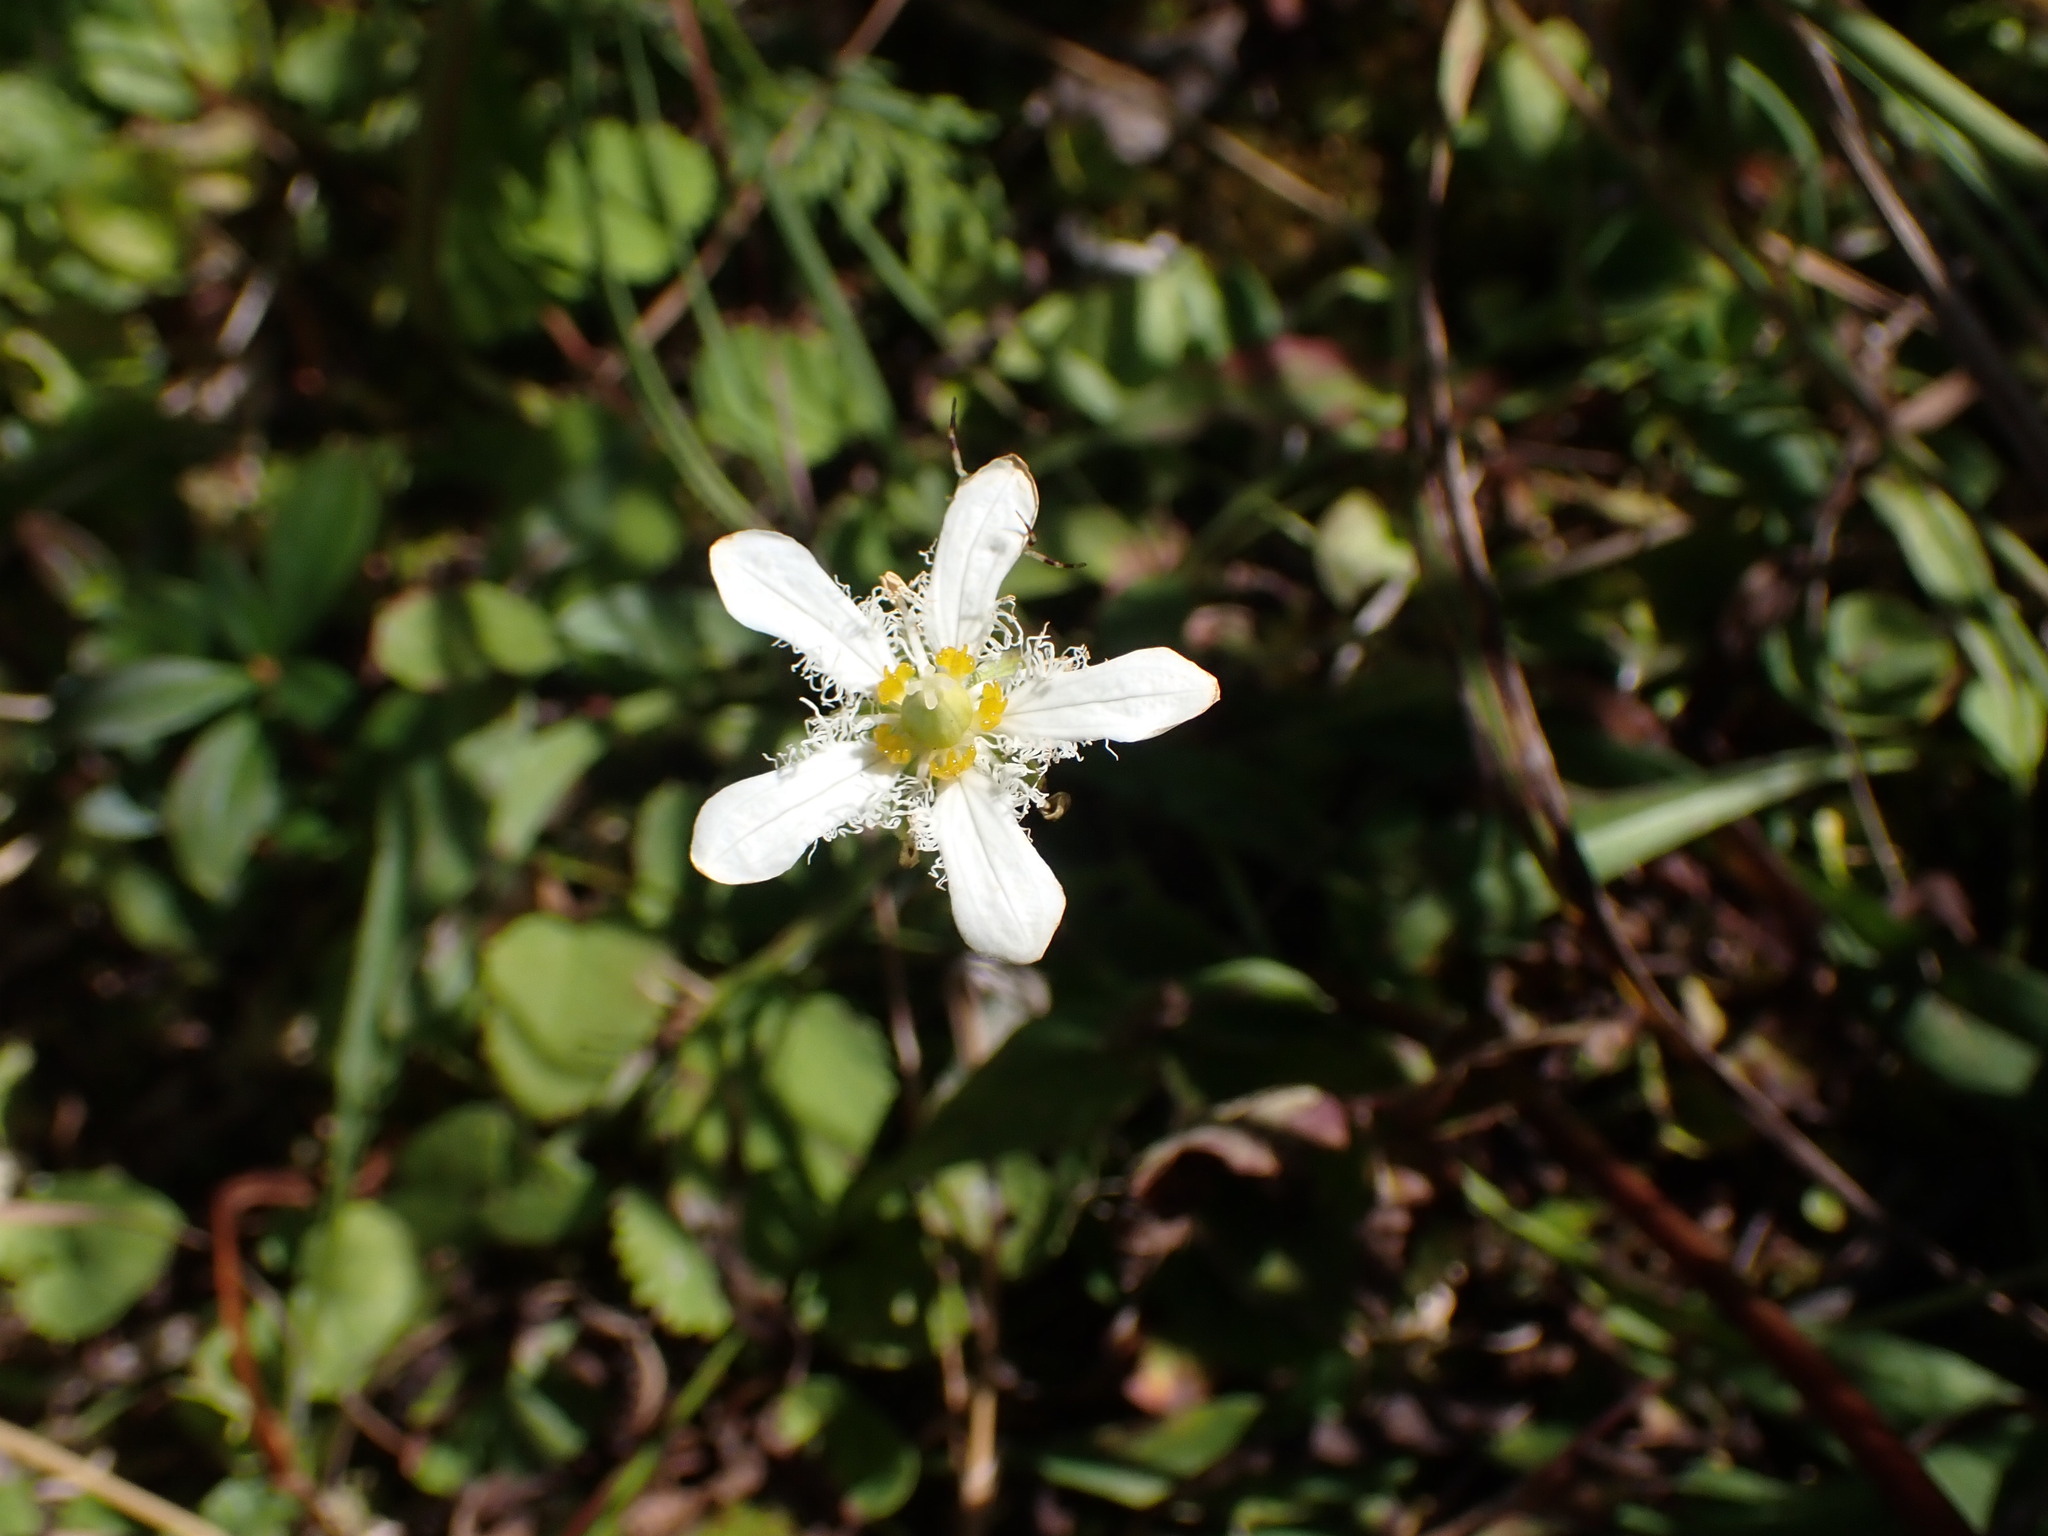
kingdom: Plantae
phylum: Tracheophyta
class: Magnoliopsida
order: Celastrales
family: Parnassiaceae
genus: Parnassia
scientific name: Parnassia fimbriata
